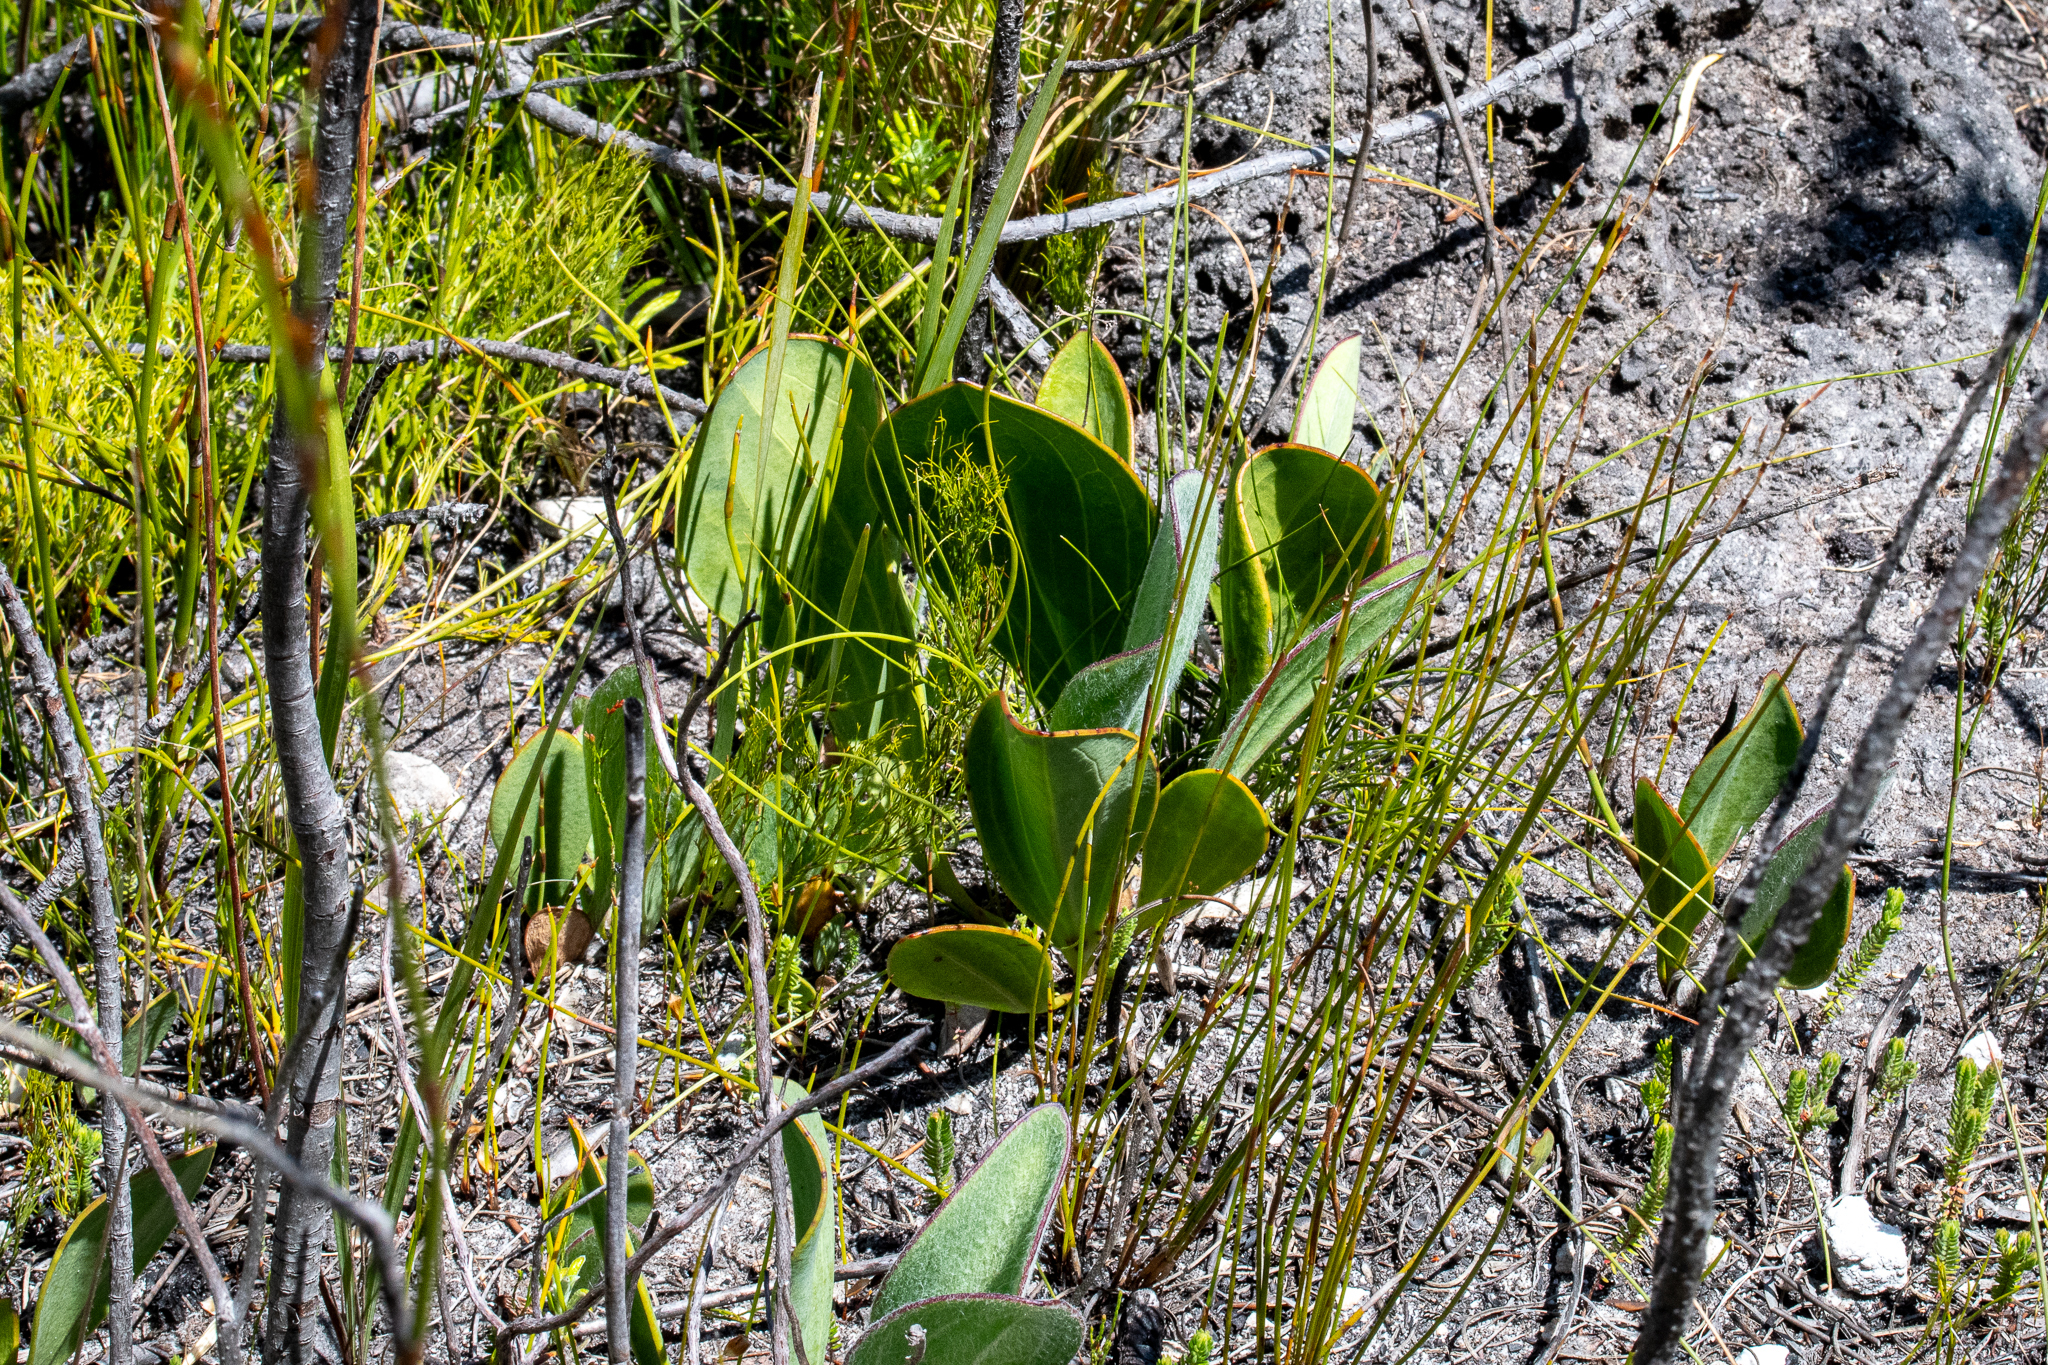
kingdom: Plantae
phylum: Tracheophyta
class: Magnoliopsida
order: Asterales
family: Asteraceae
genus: Mairia
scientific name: Mairia coriacea
